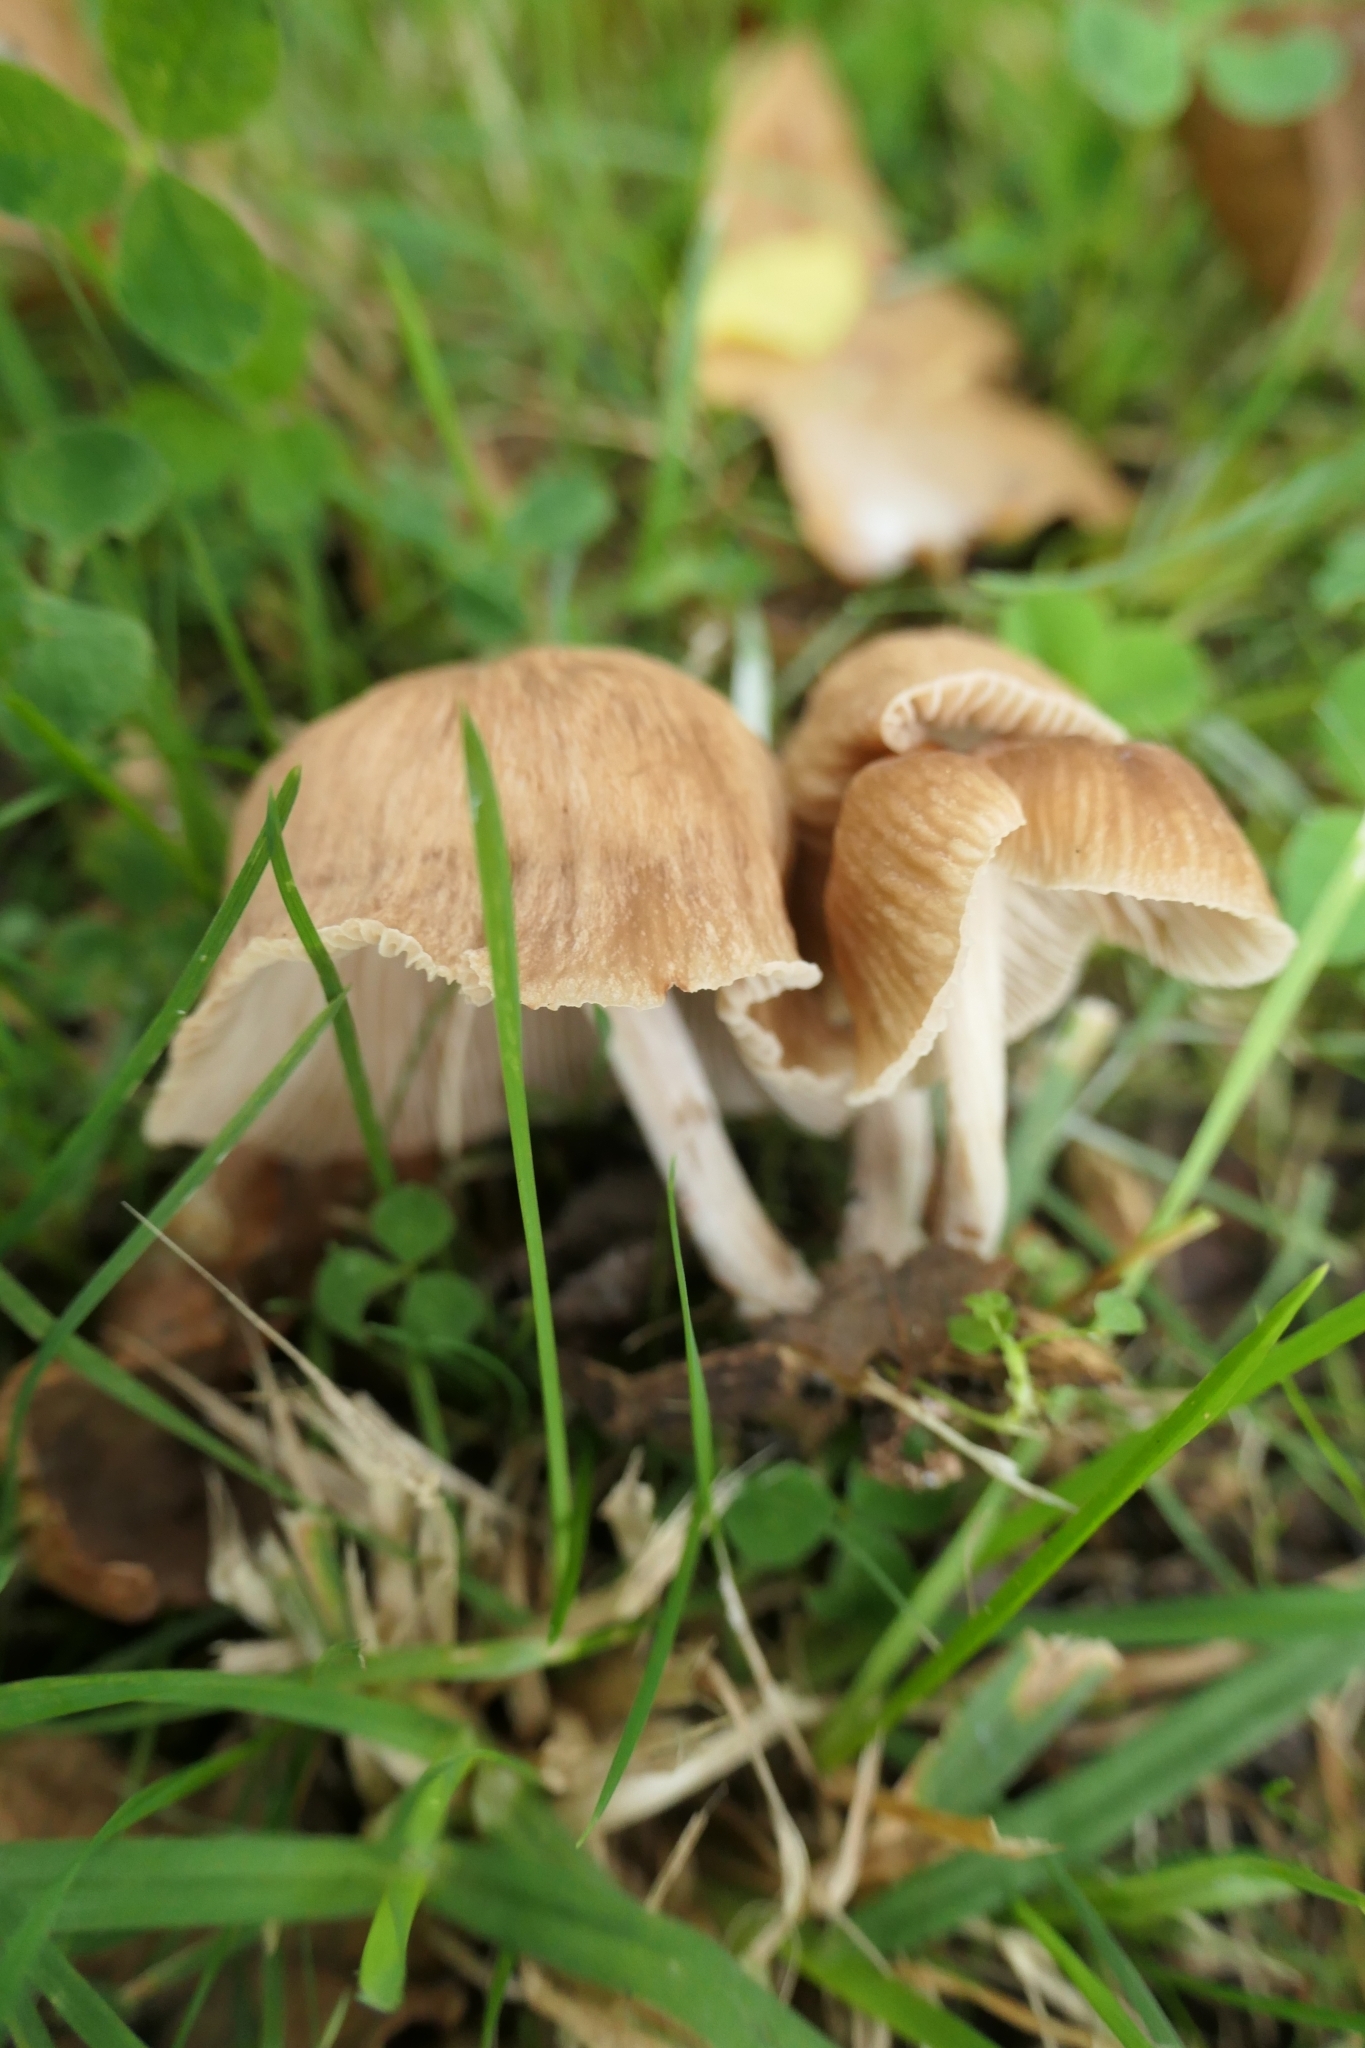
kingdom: Fungi
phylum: Basidiomycota
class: Agaricomycetes
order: Agaricales
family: Omphalotaceae
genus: Collybiopsis
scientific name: Collybiopsis subpruinosa
